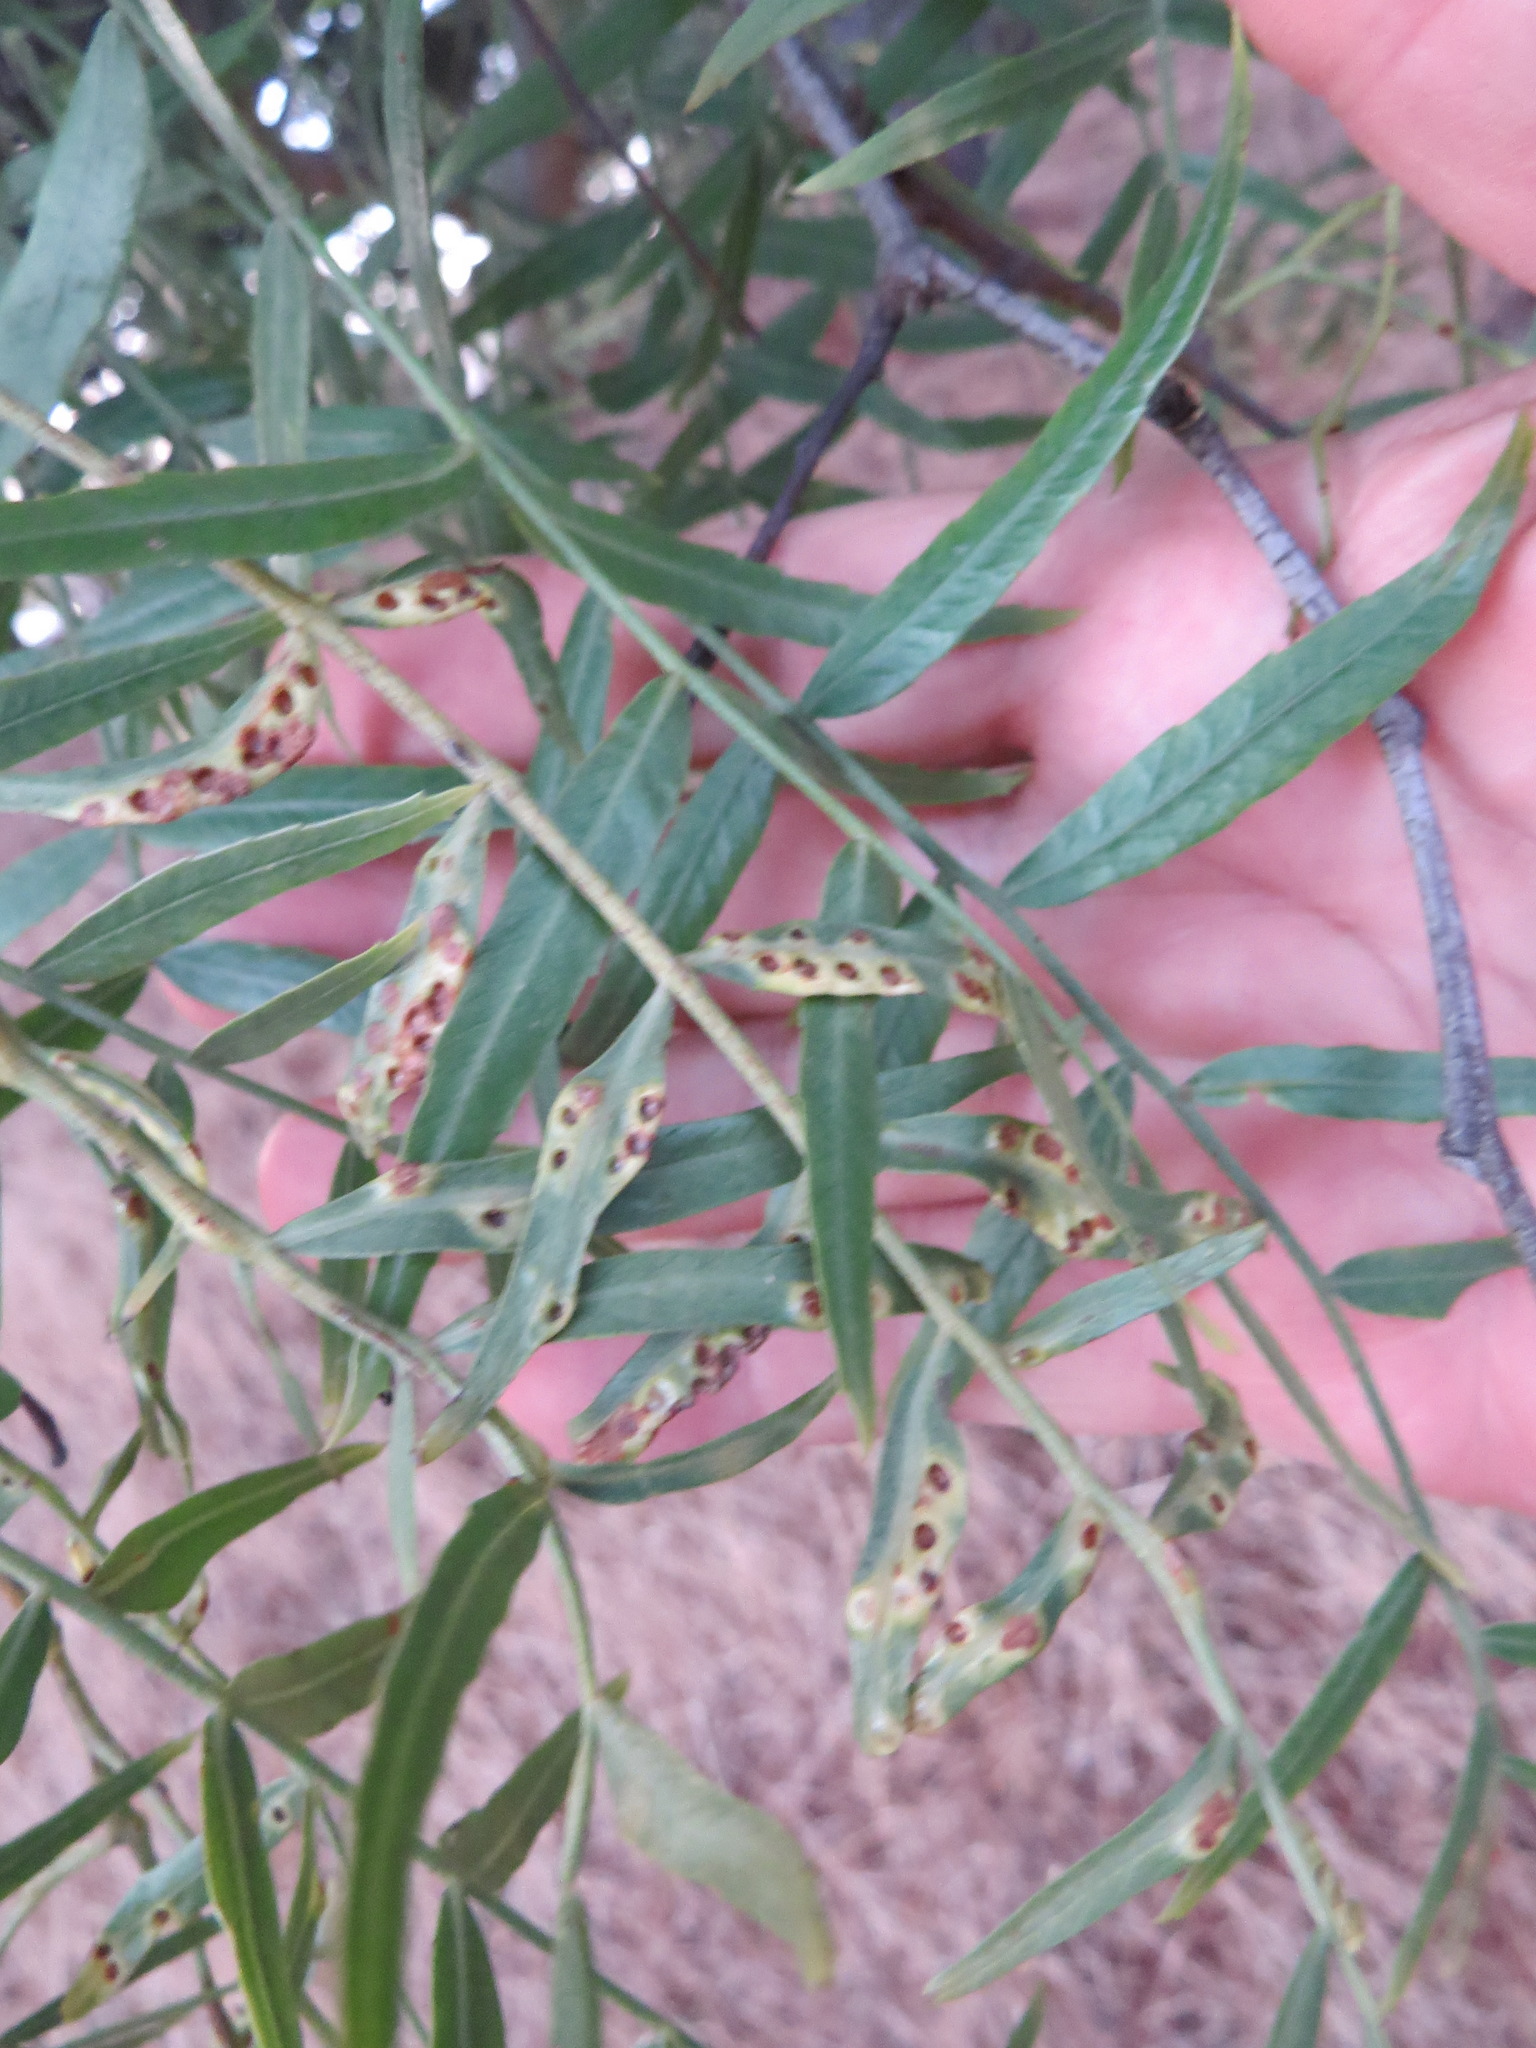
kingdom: Animalia
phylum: Arthropoda
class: Insecta
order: Hemiptera
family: Calophyidae
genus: Calophya
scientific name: Calophya schini
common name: Pepper tree psyllid
